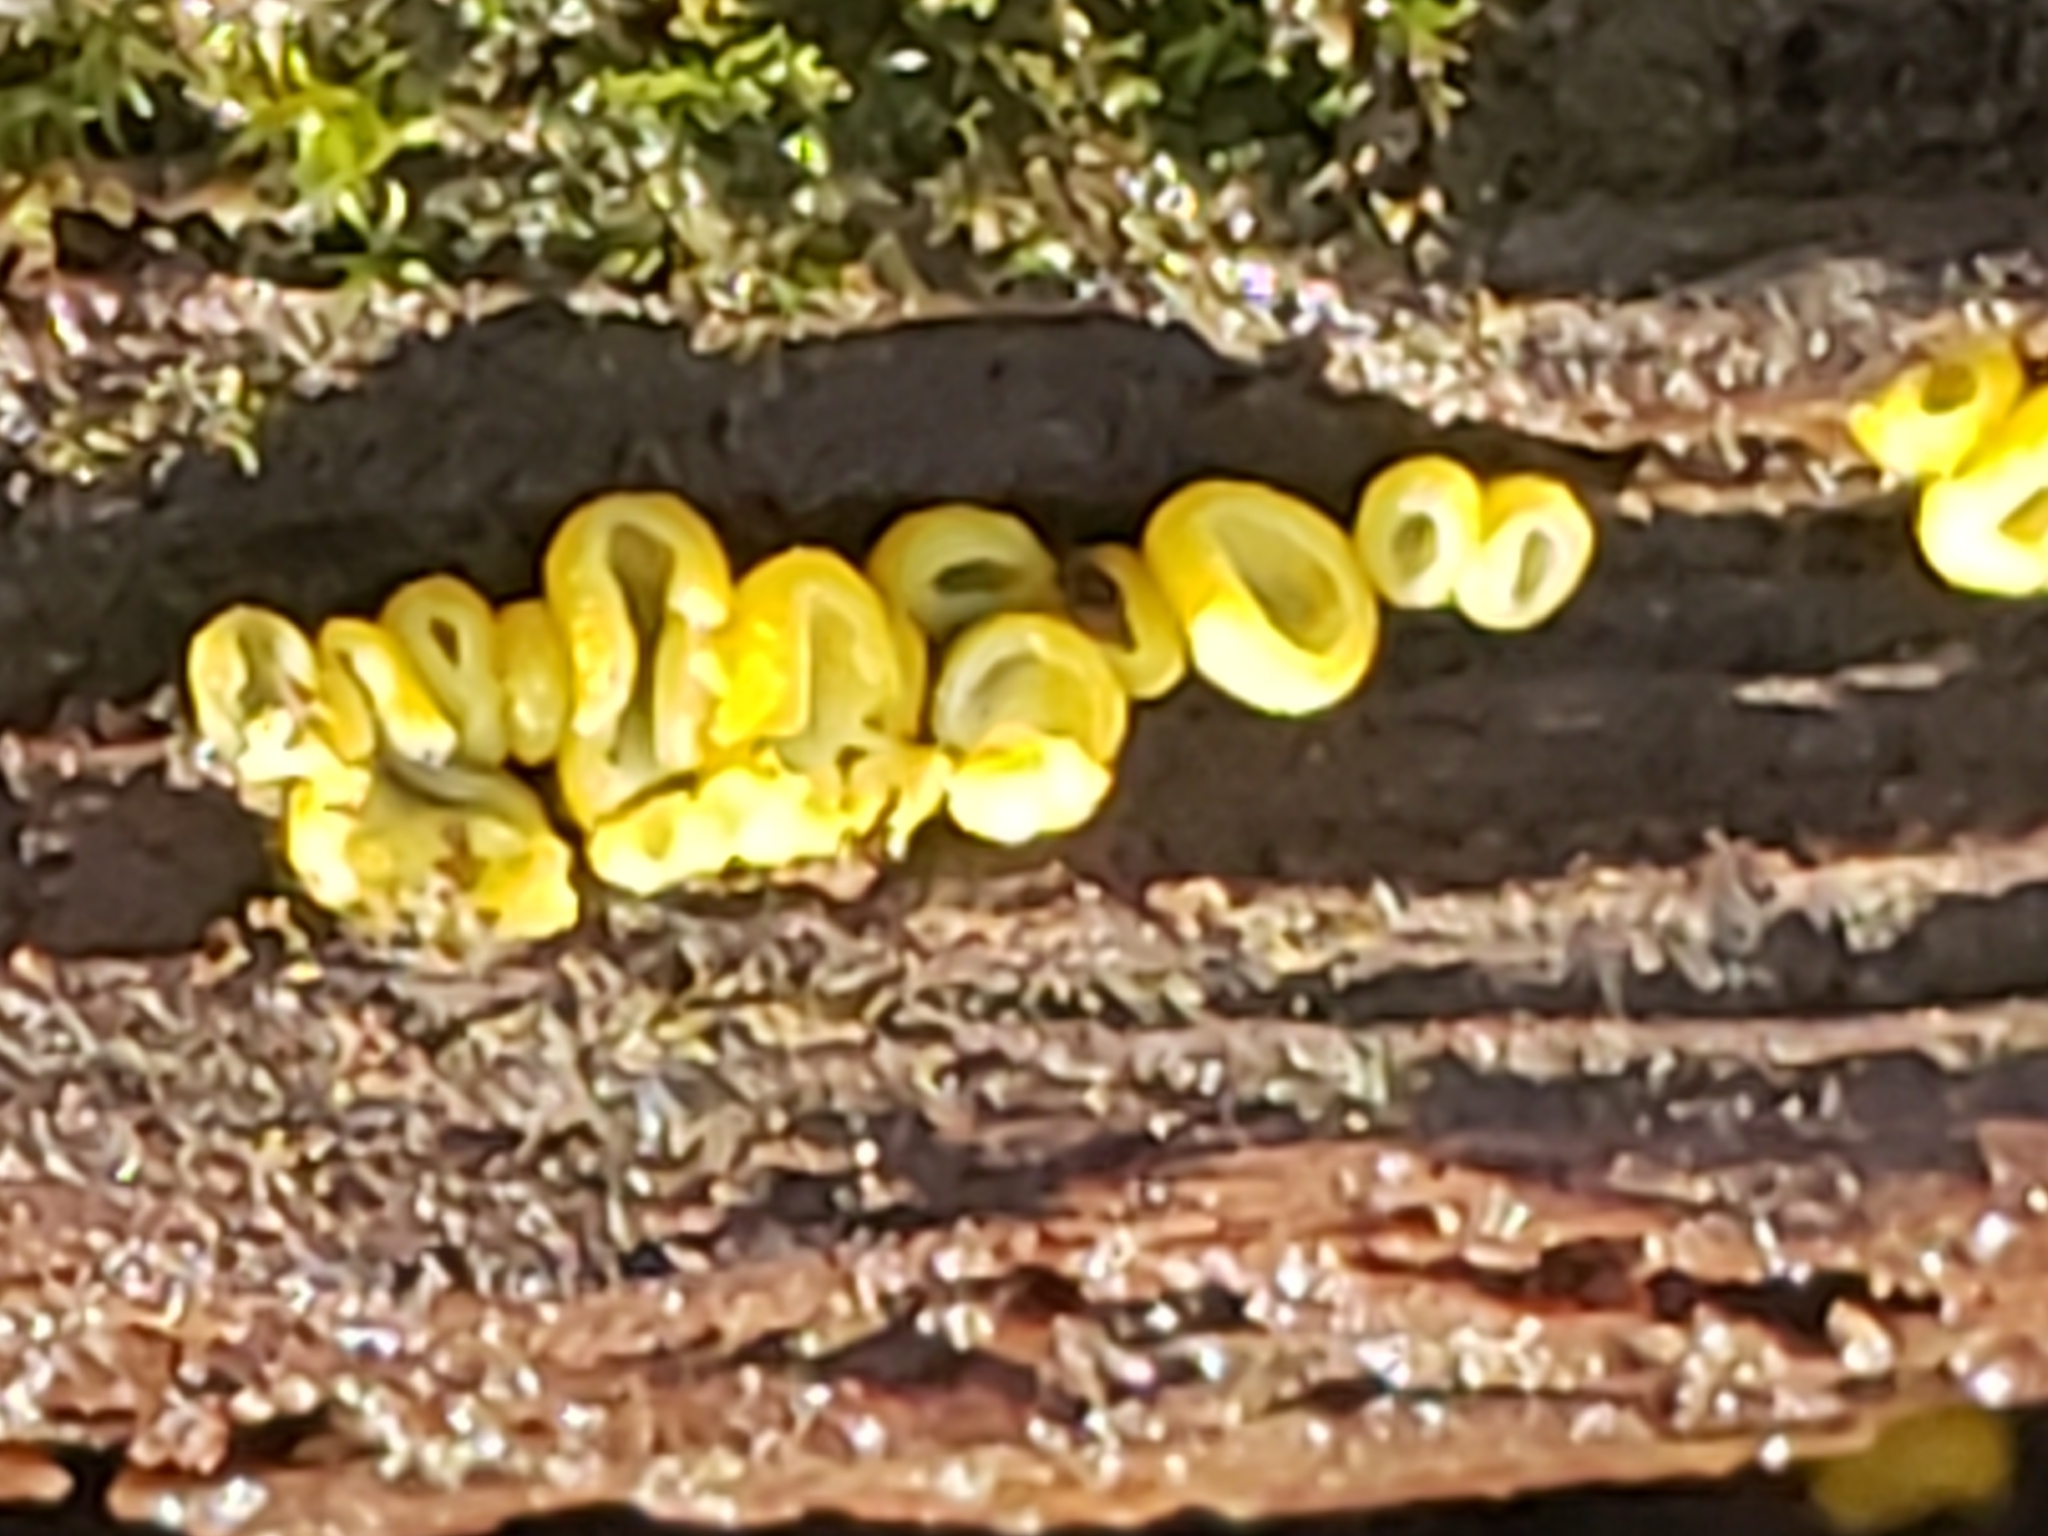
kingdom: Fungi
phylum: Ascomycota
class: Leotiomycetes
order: Helotiales
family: Chlorospleniaceae
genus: Chlorosplenium
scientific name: Chlorosplenium chlora
